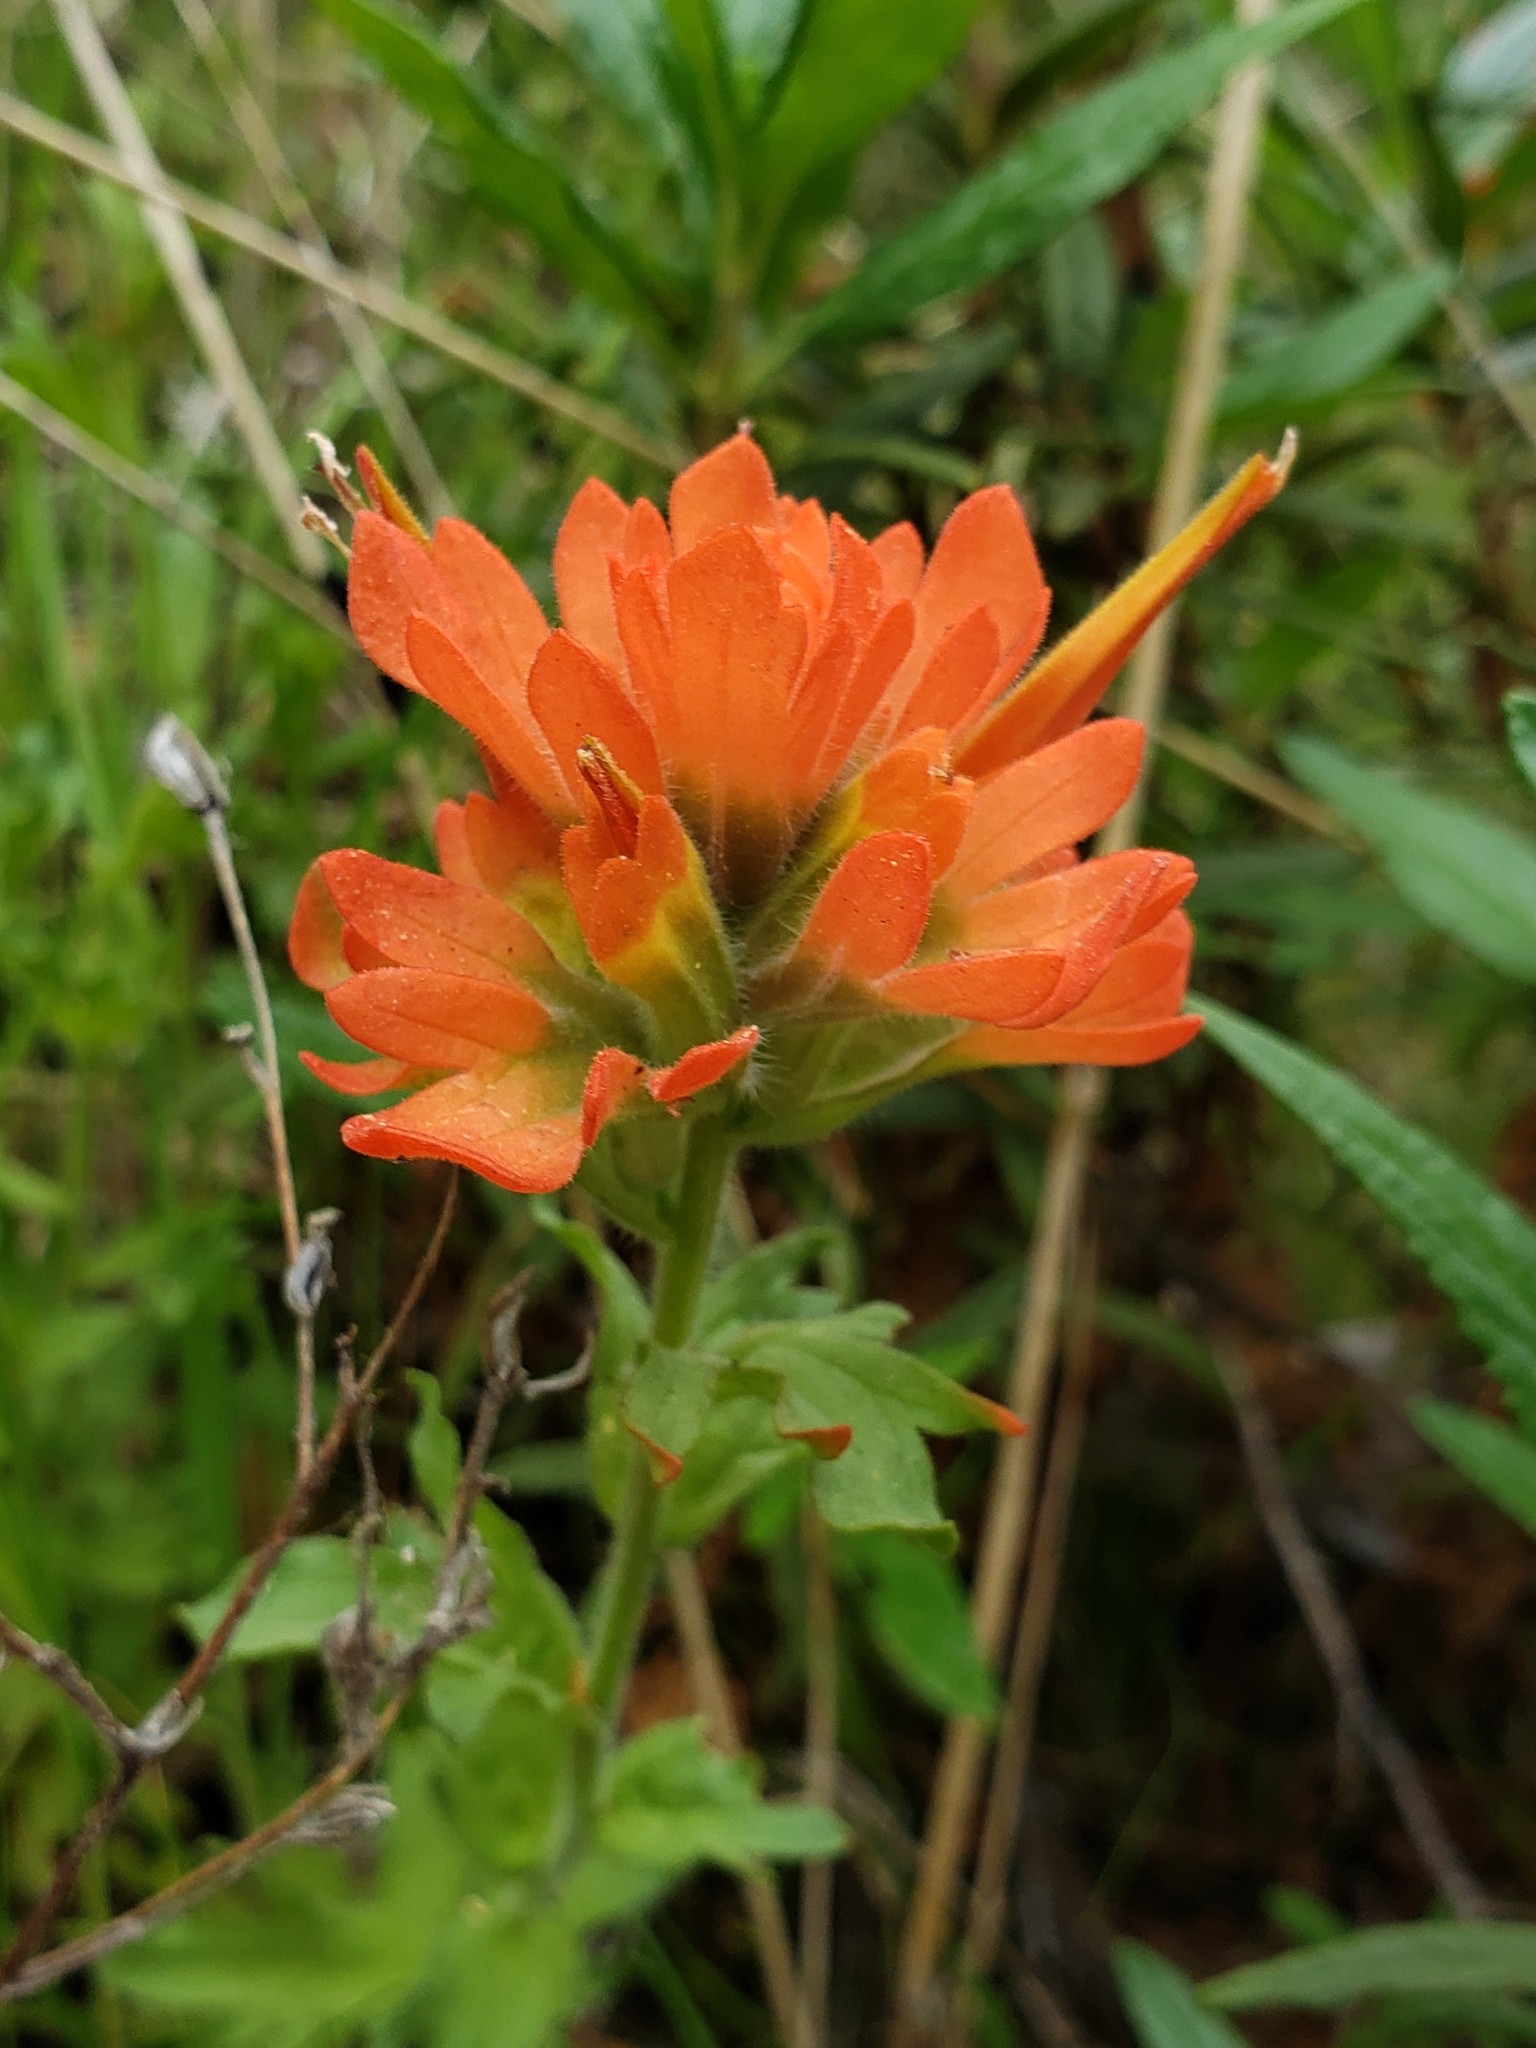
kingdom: Plantae
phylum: Tracheophyta
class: Magnoliopsida
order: Lamiales
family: Orobanchaceae
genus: Castilleja
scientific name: Castilleja martini
